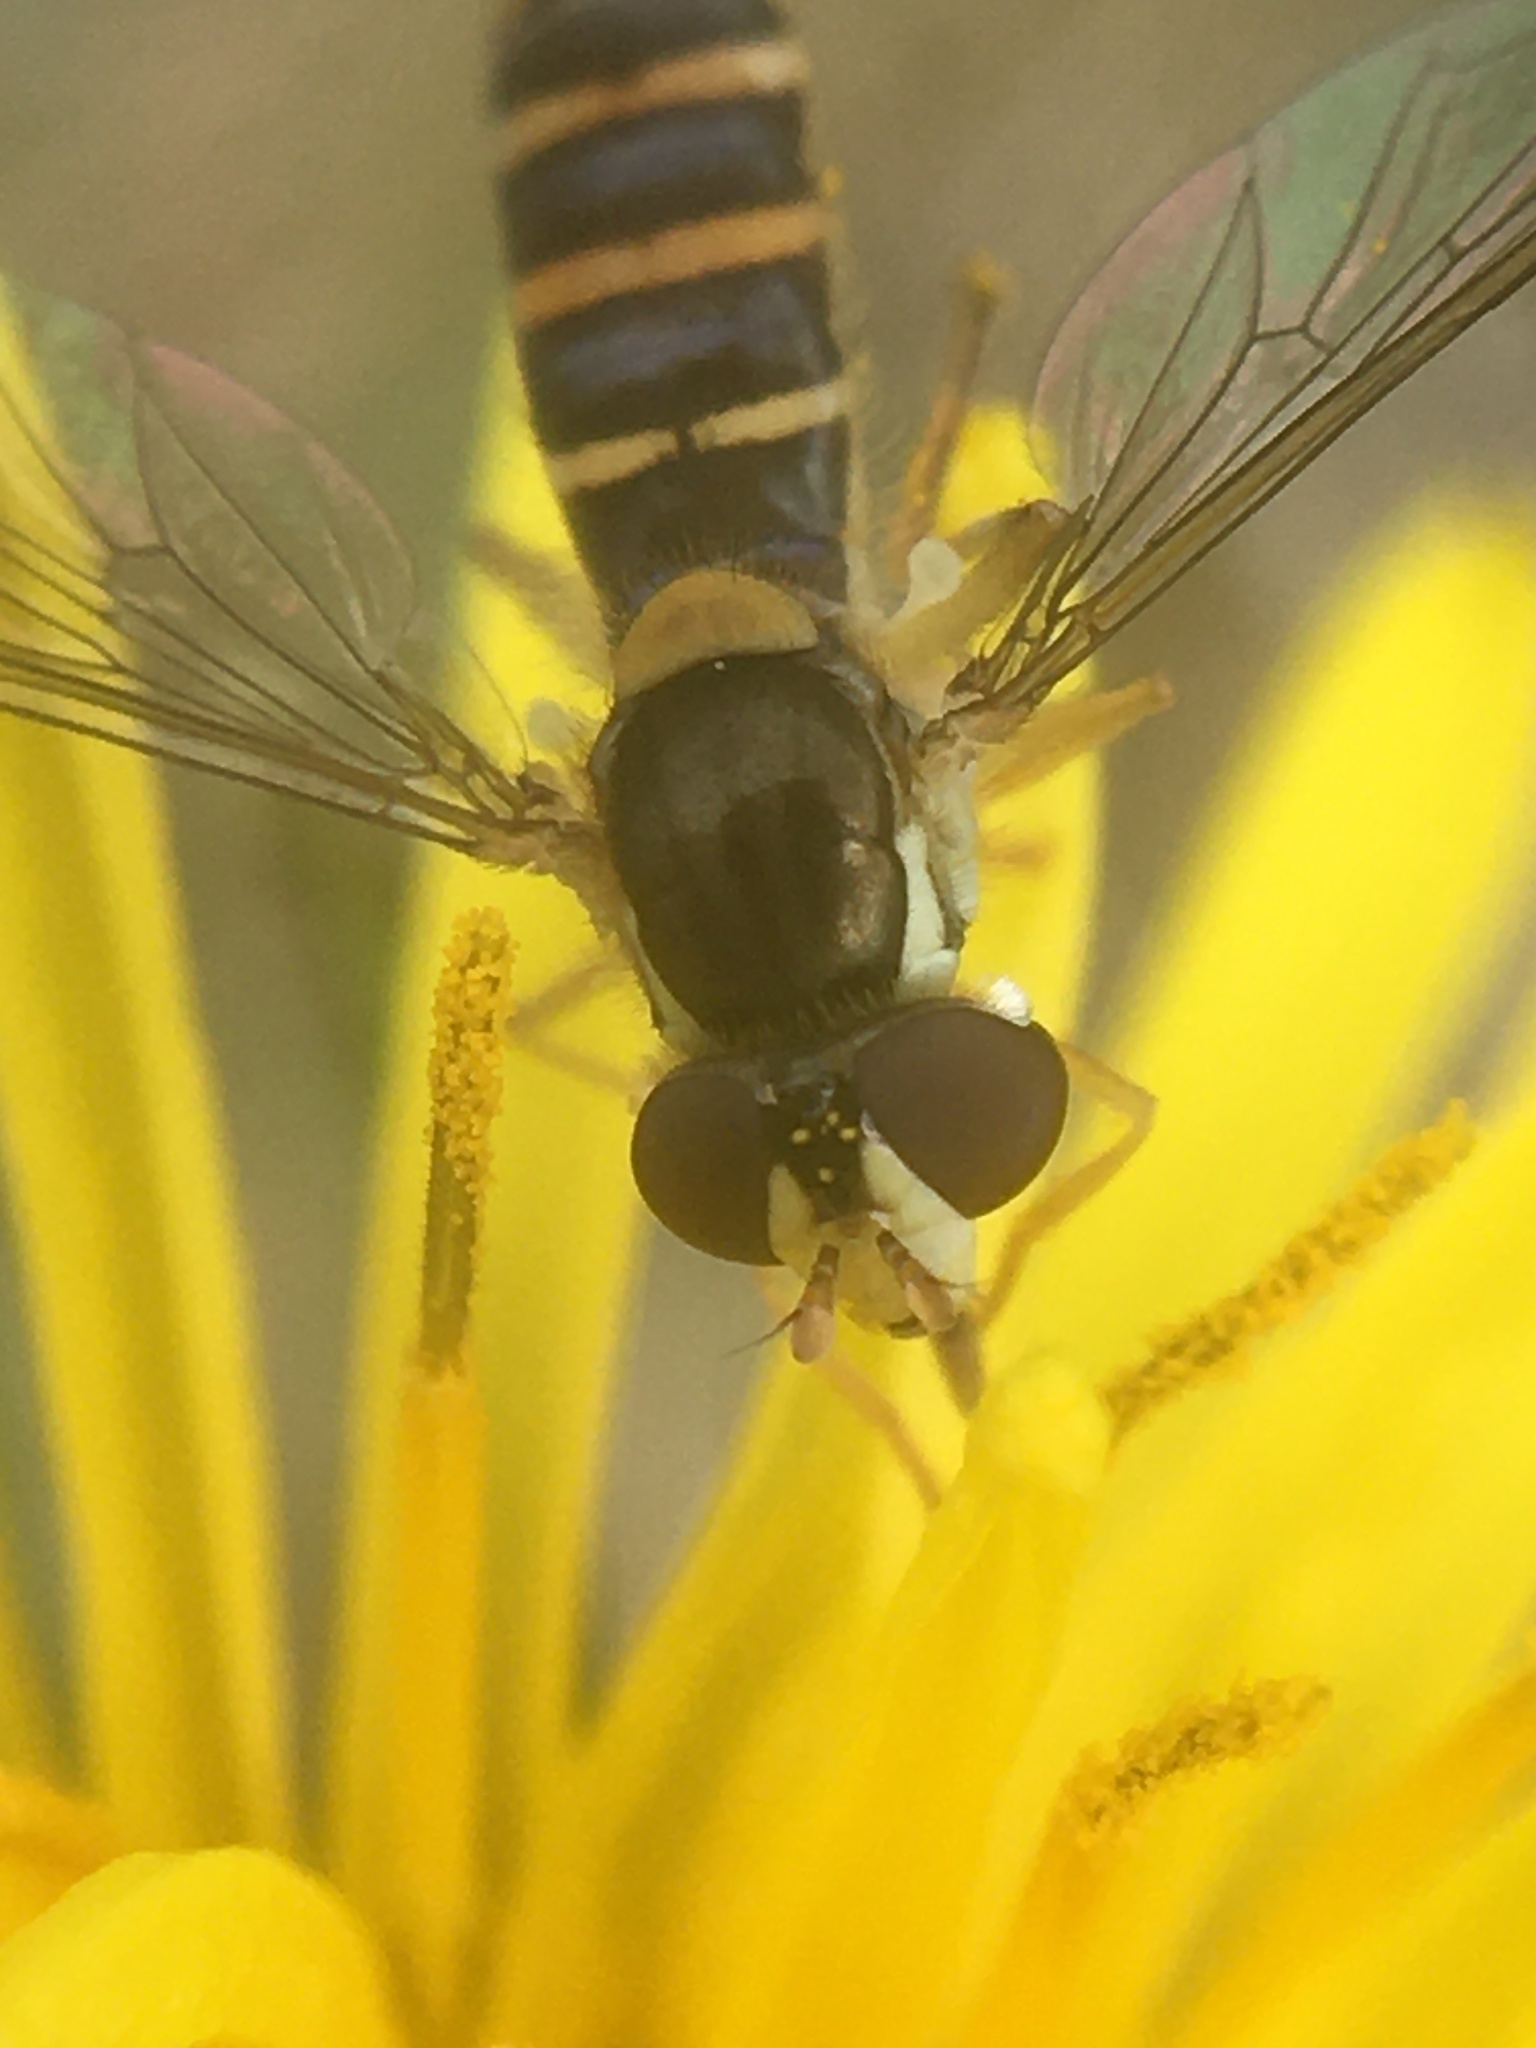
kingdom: Animalia
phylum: Arthropoda
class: Insecta
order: Diptera
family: Syrphidae
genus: Sphaerophoria
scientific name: Sphaerophoria
